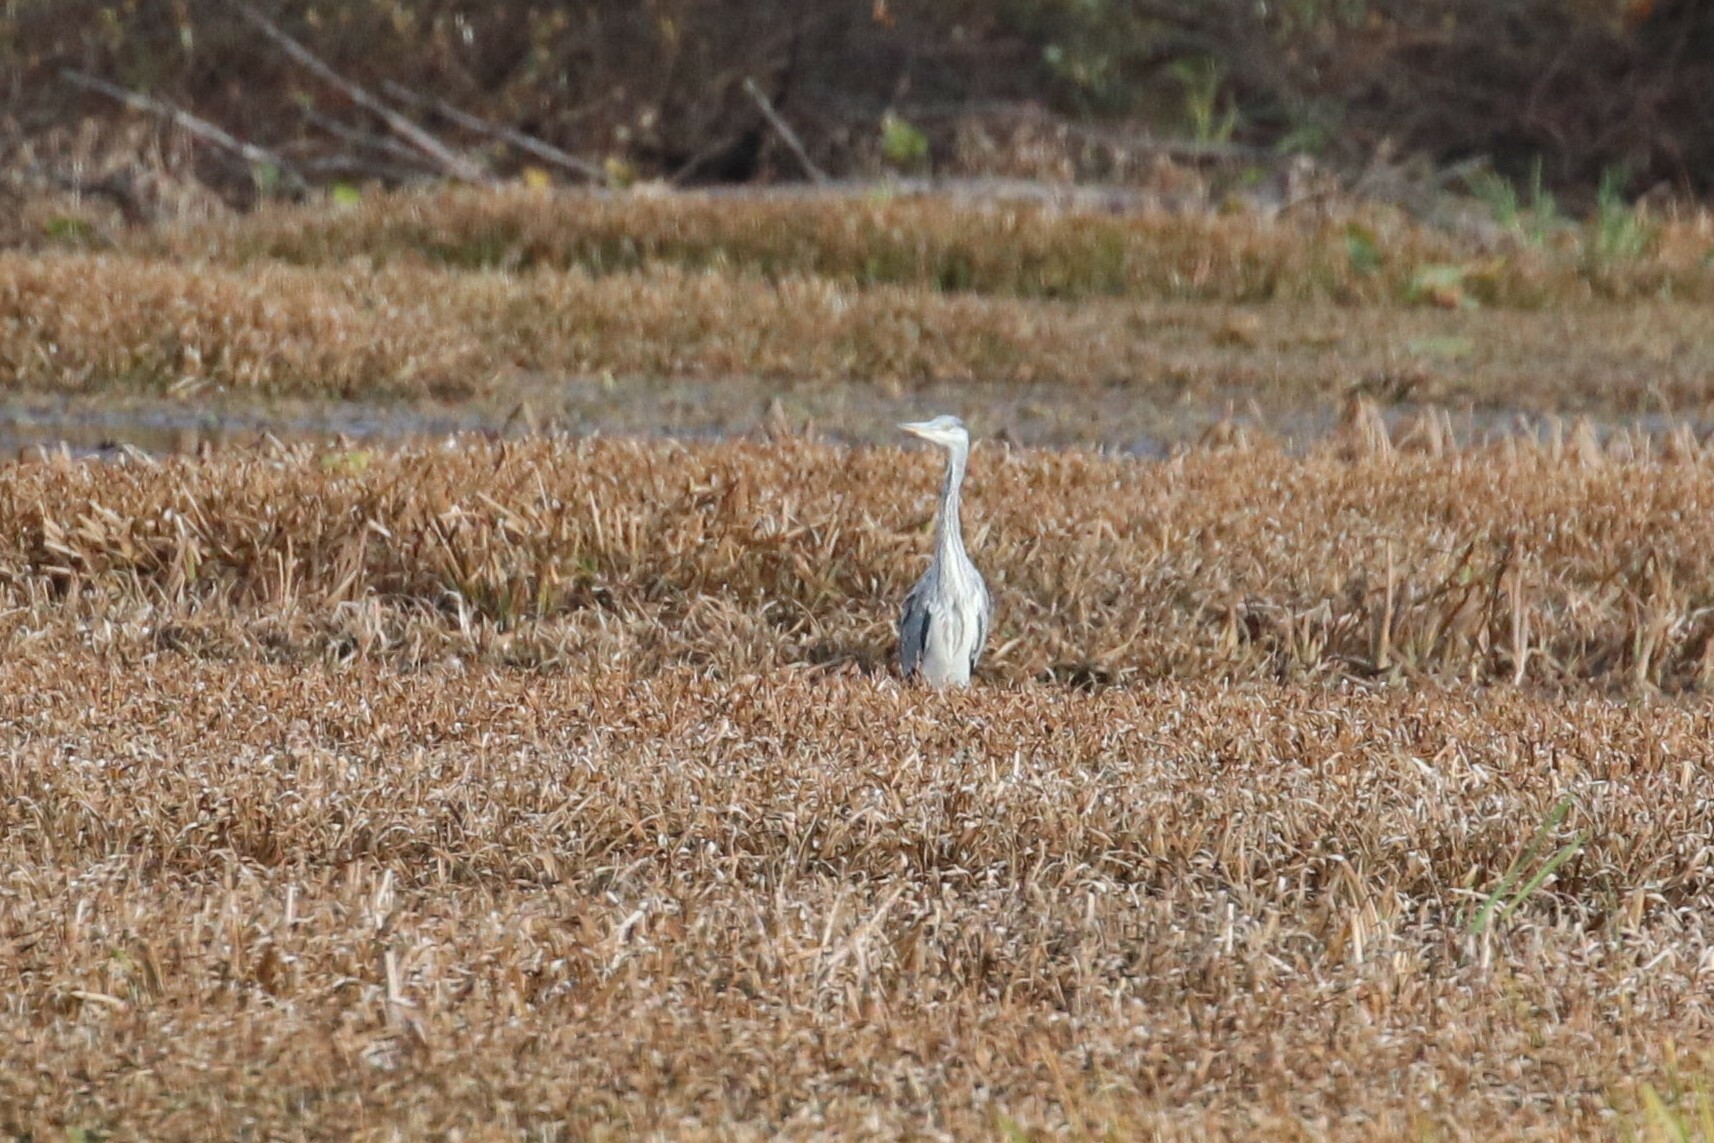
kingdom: Animalia
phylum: Chordata
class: Aves
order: Pelecaniformes
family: Ardeidae
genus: Ardea
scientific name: Ardea cinerea
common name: Grey heron
